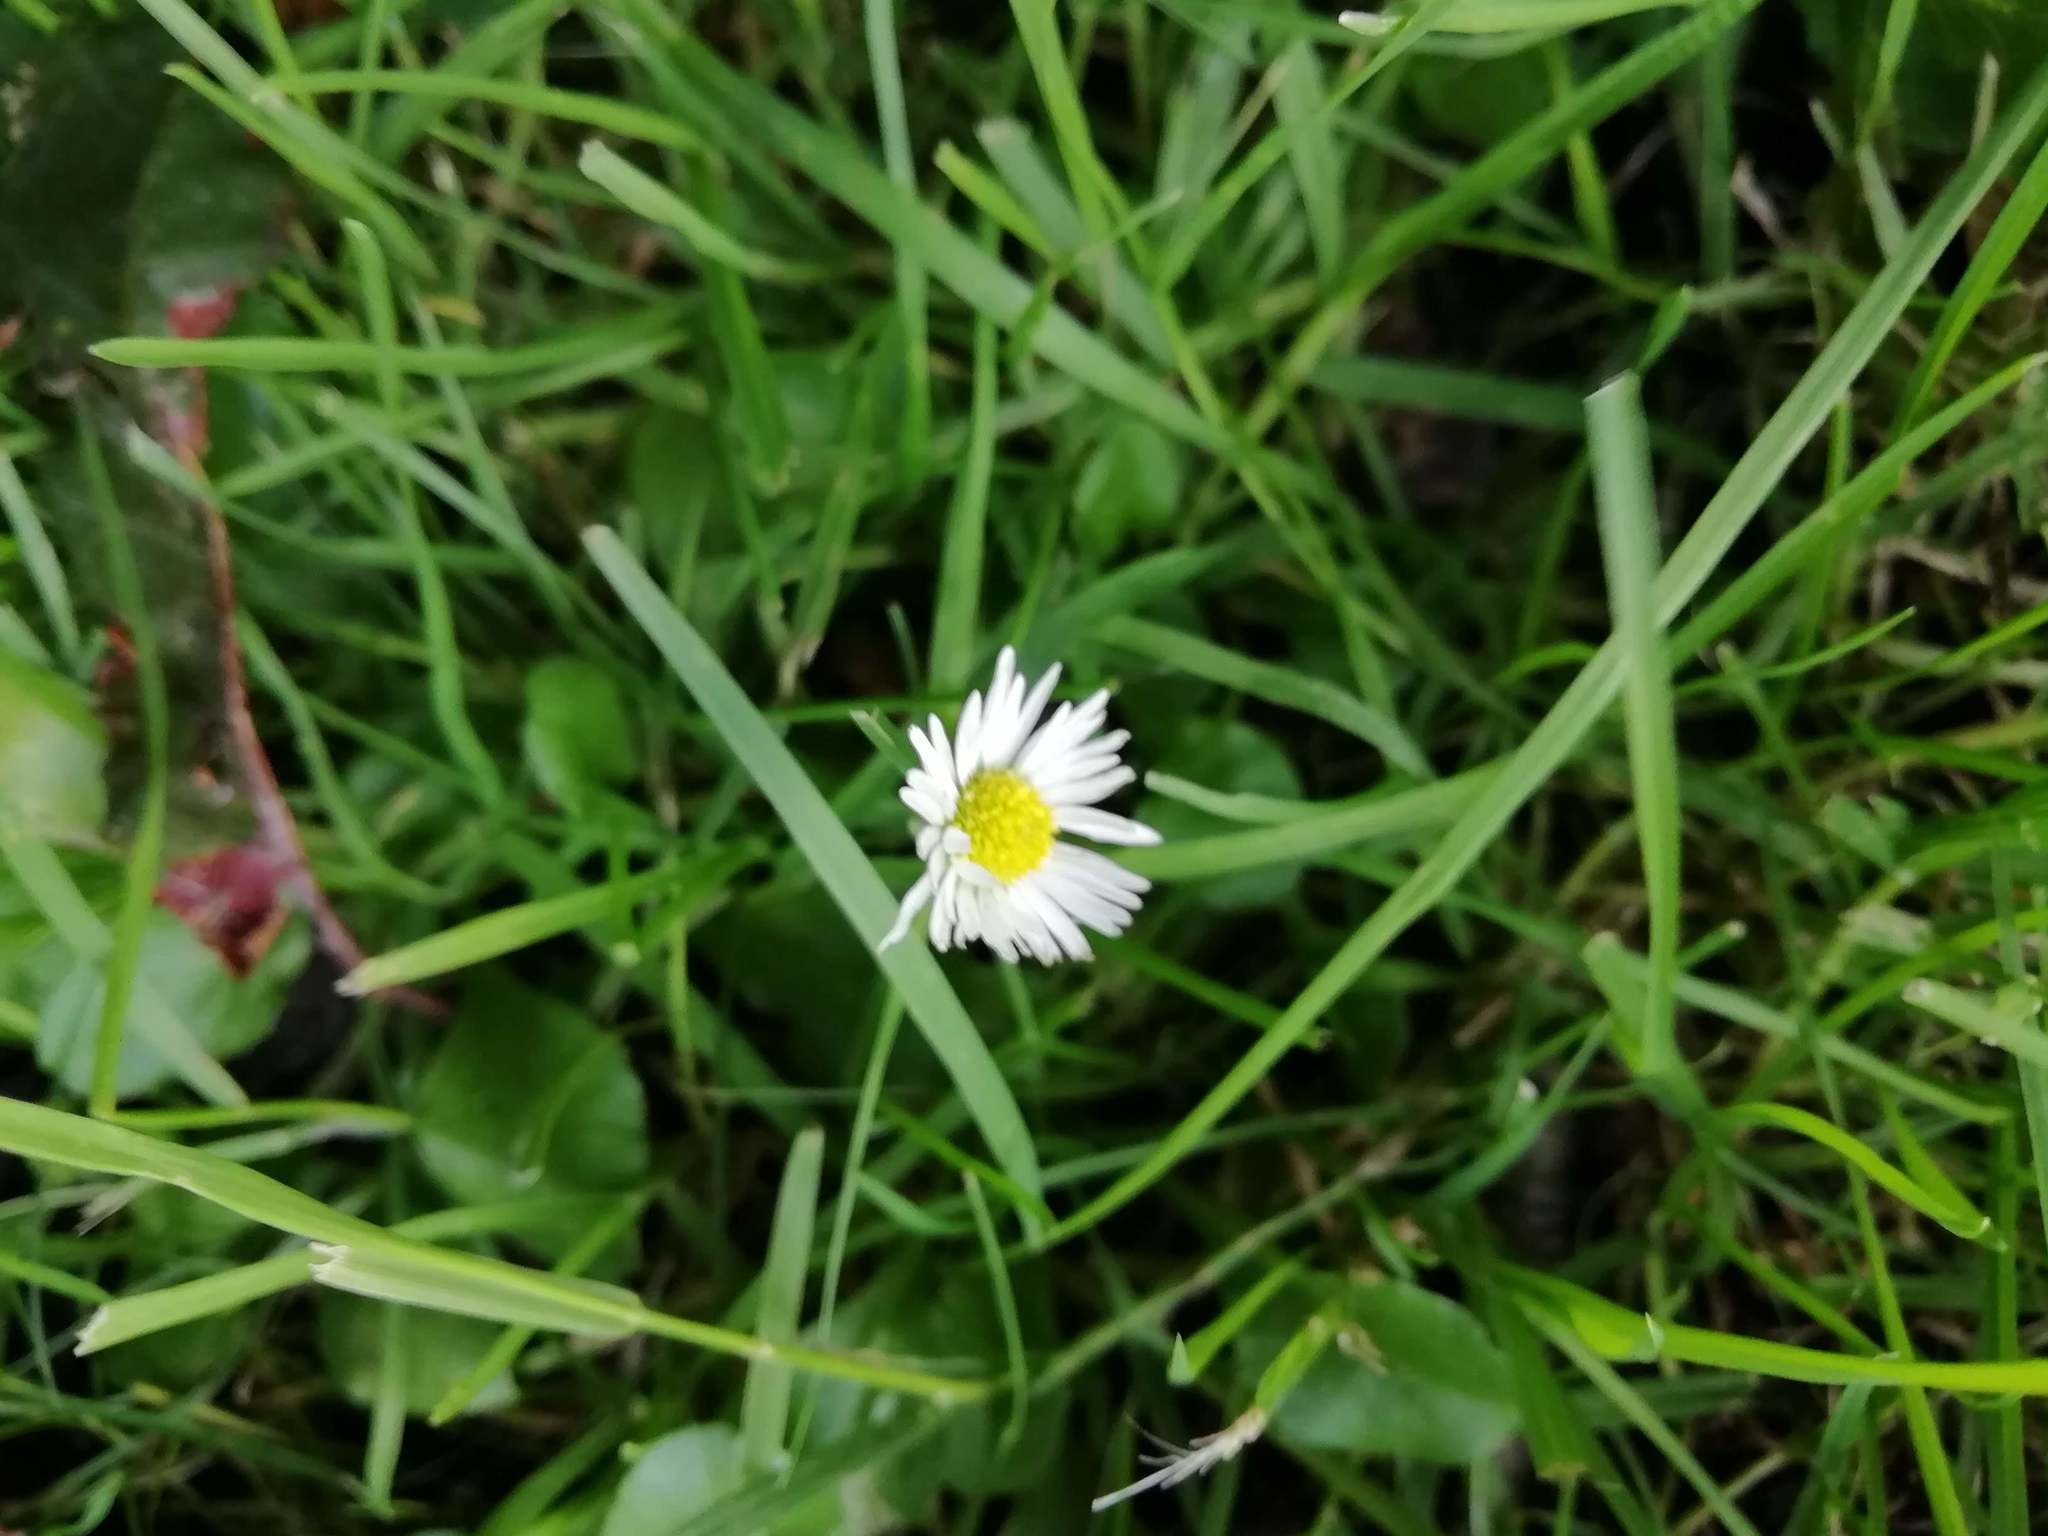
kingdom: Plantae
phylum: Tracheophyta
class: Magnoliopsida
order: Asterales
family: Asteraceae
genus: Bellis
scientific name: Bellis perennis
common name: Lawndaisy
